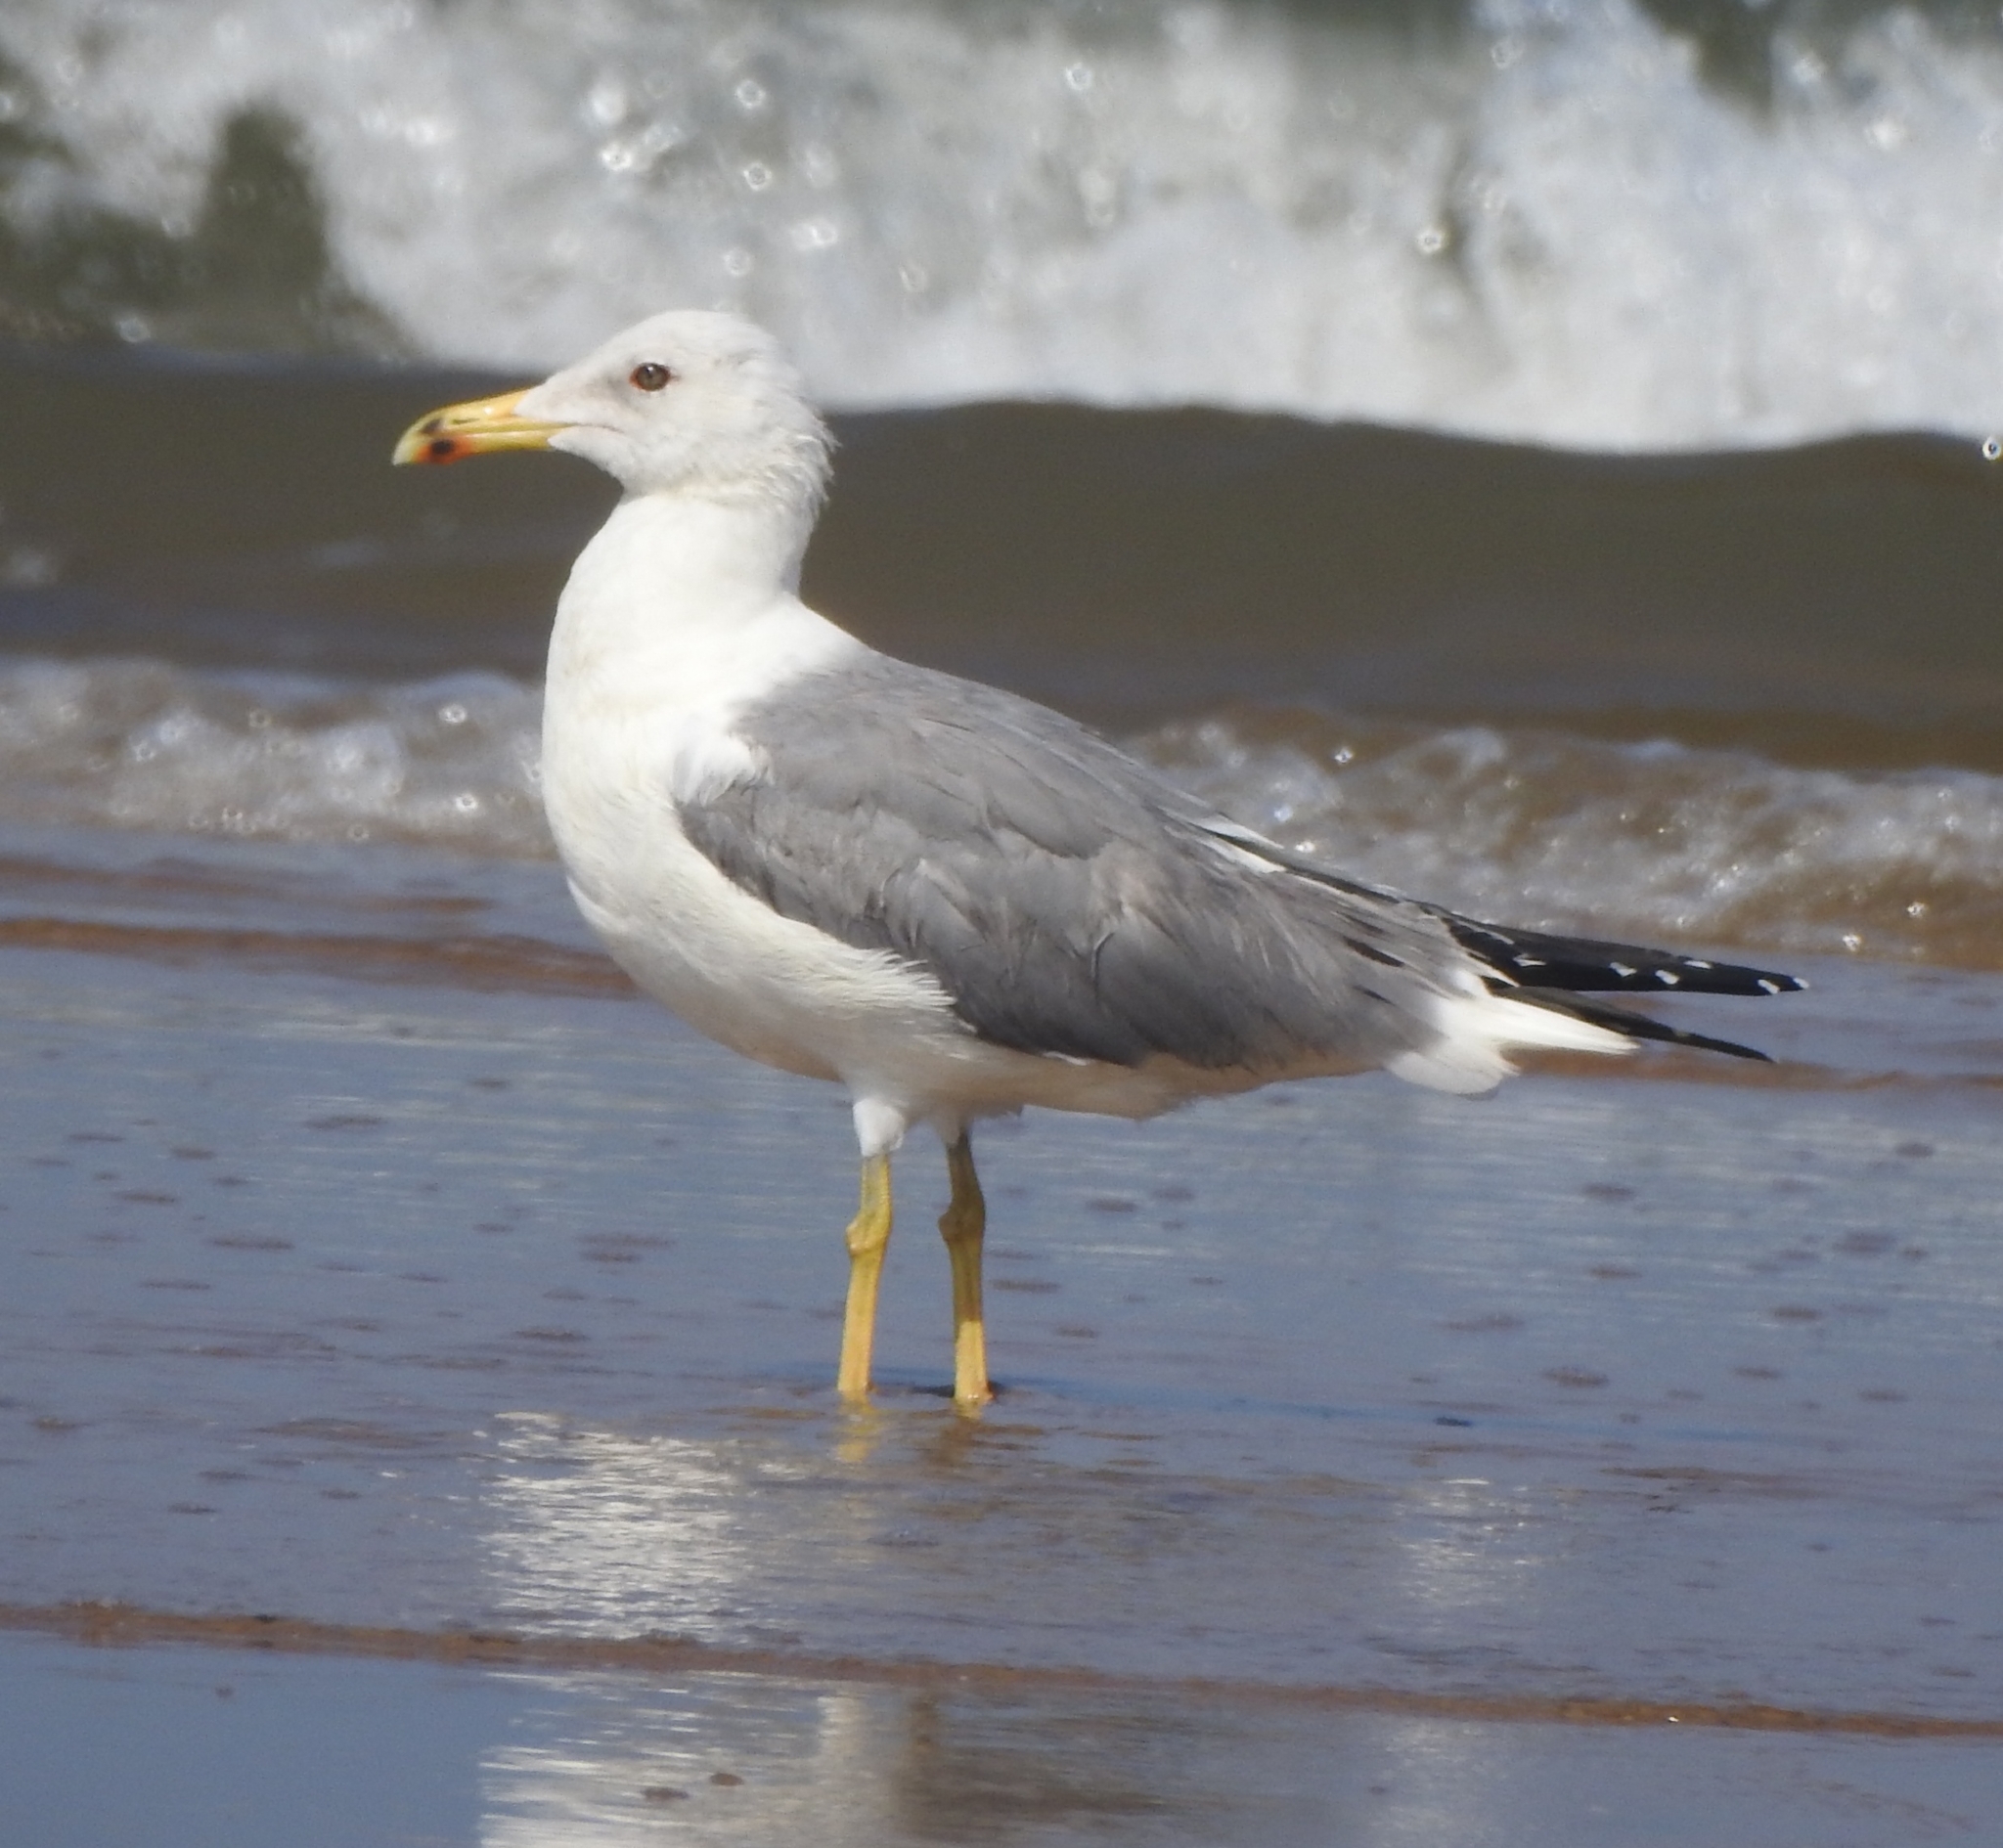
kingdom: Animalia
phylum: Chordata
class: Aves
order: Charadriiformes
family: Laridae
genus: Larus
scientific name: Larus fuscus
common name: Lesser black-backed gull
